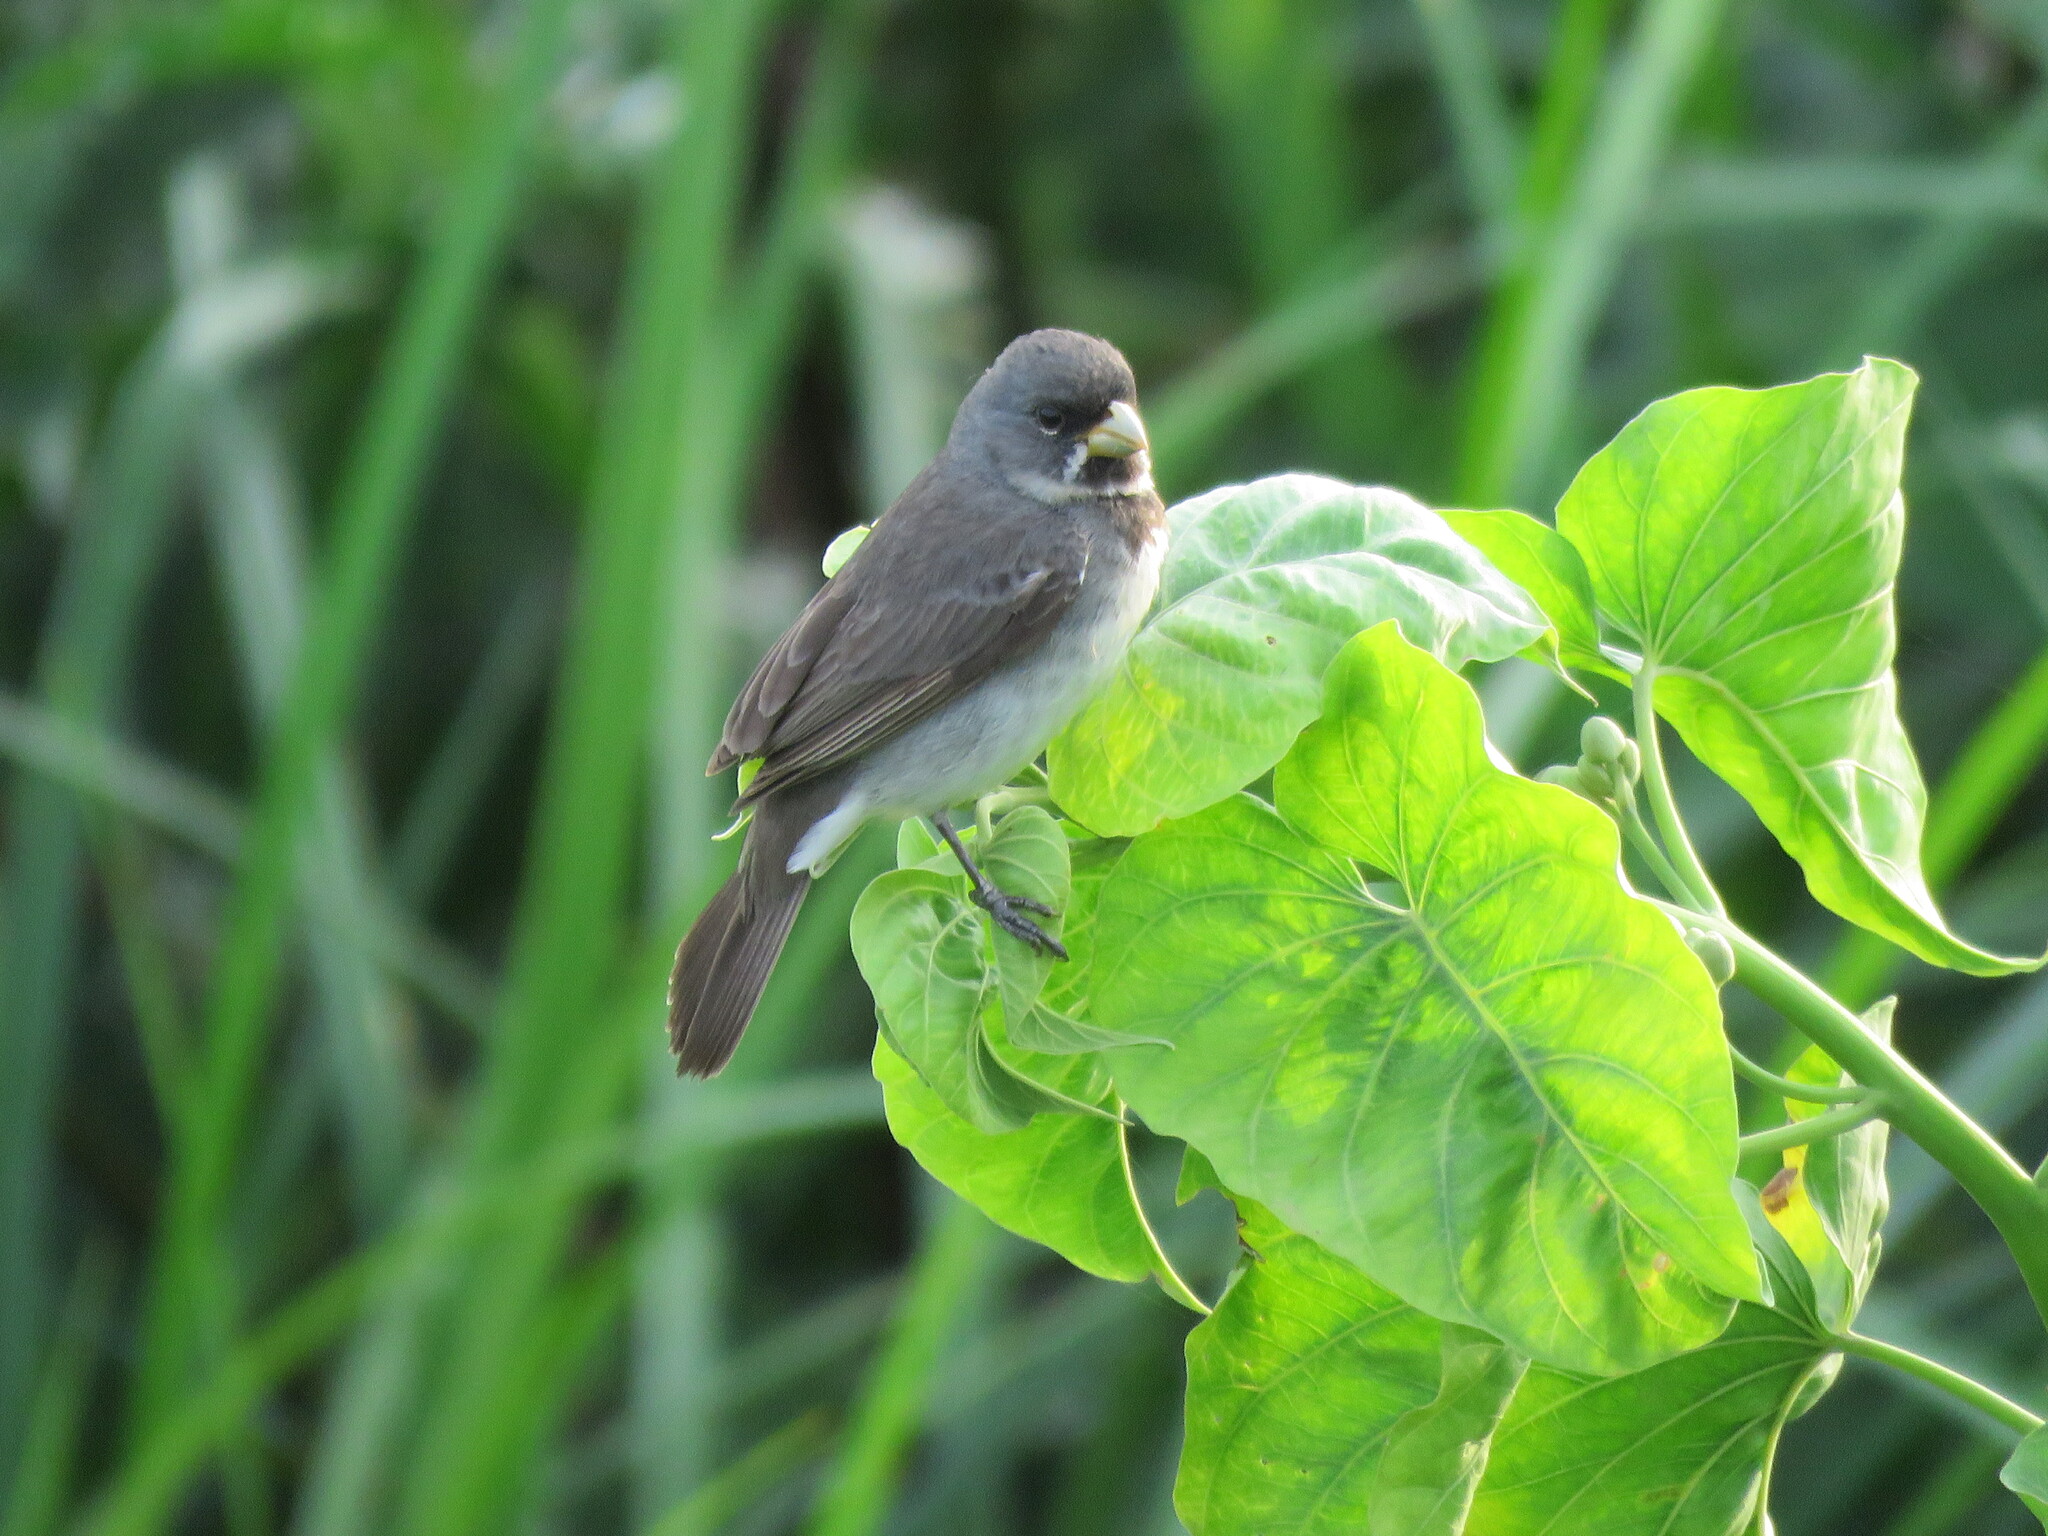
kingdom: Animalia
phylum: Chordata
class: Aves
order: Passeriformes
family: Thraupidae
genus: Sporophila
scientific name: Sporophila caerulescens
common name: Double-collared seedeater
